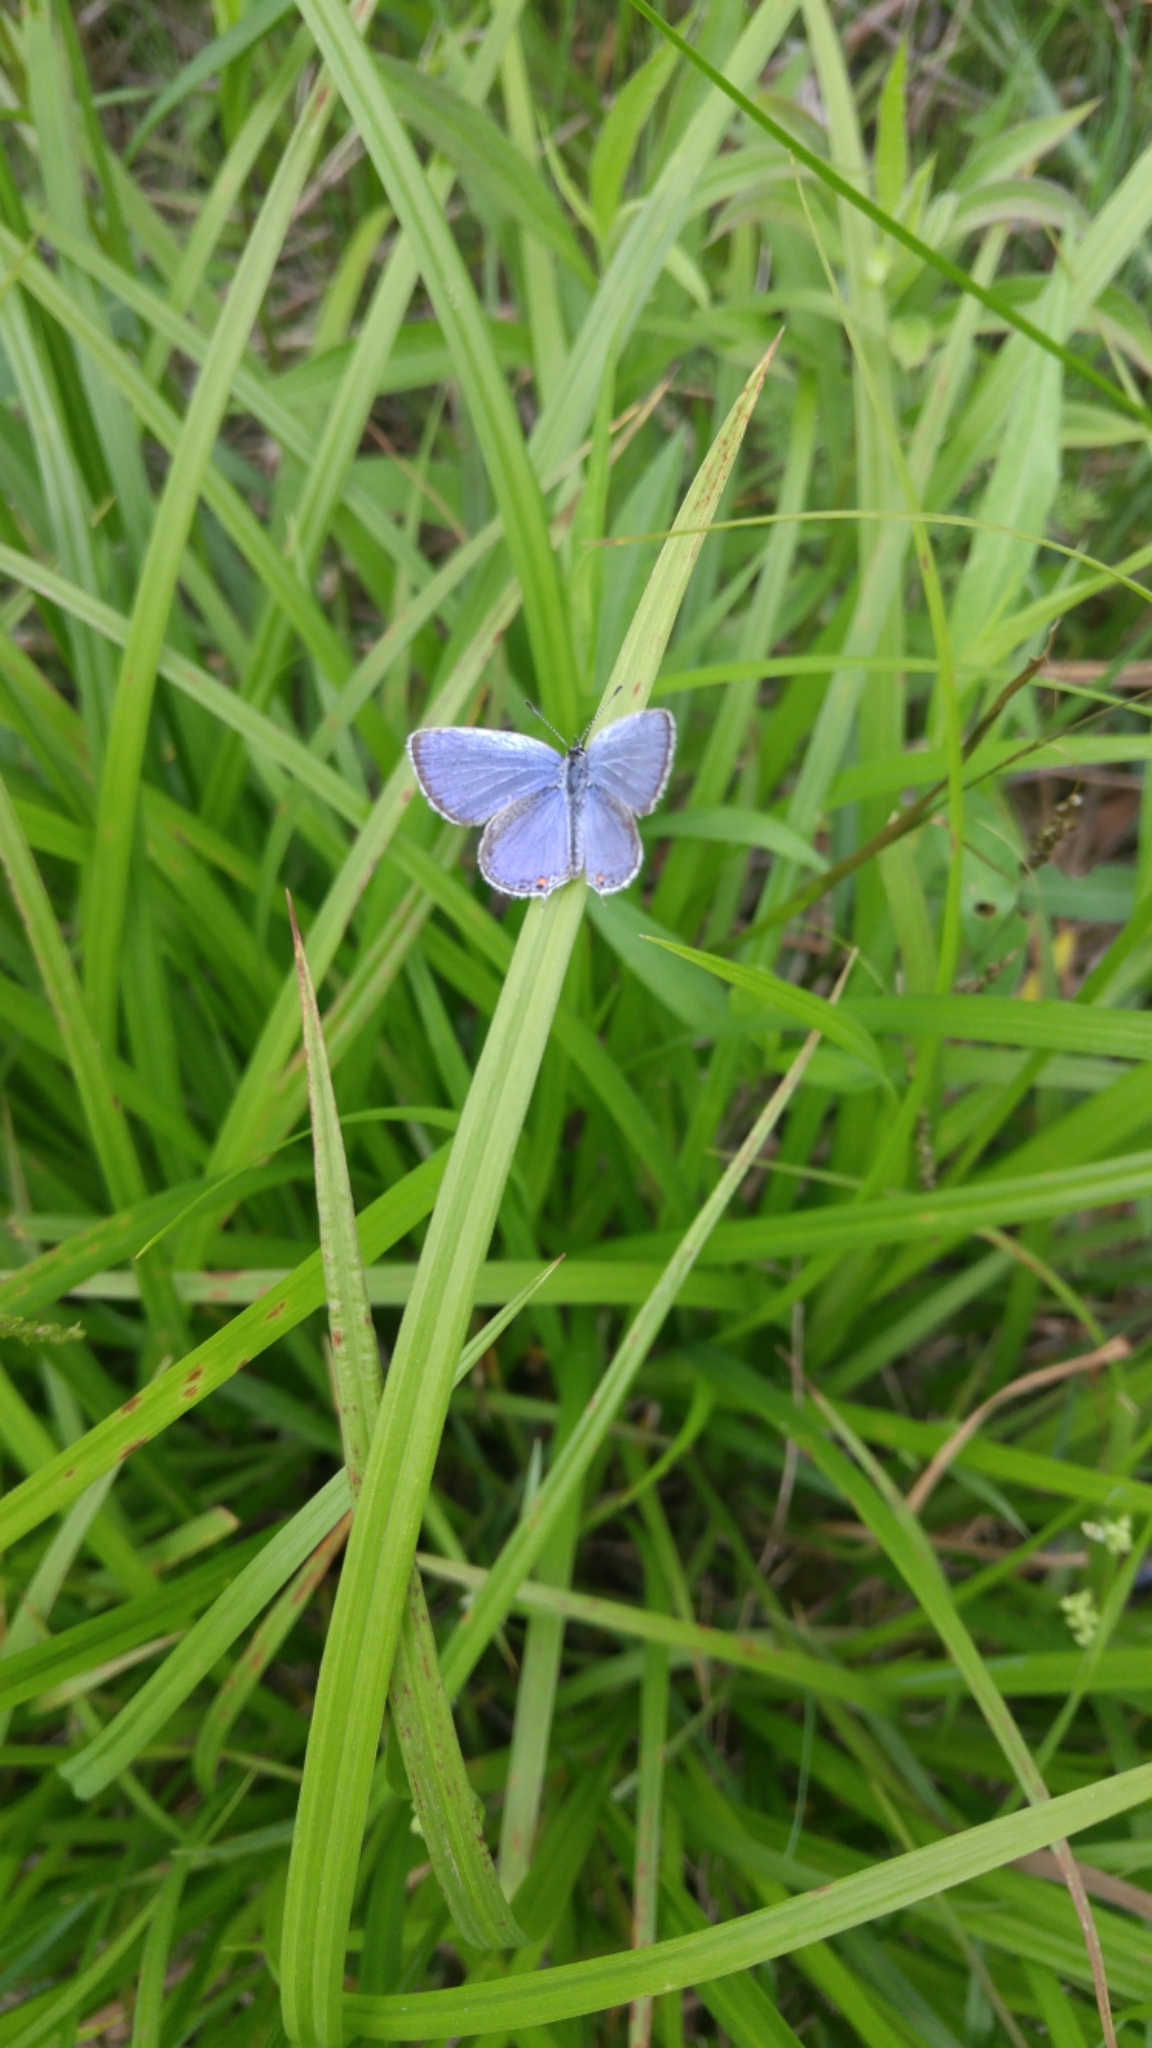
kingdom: Animalia
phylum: Arthropoda
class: Insecta
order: Lepidoptera
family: Lycaenidae
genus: Elkalyce
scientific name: Elkalyce comyntas
